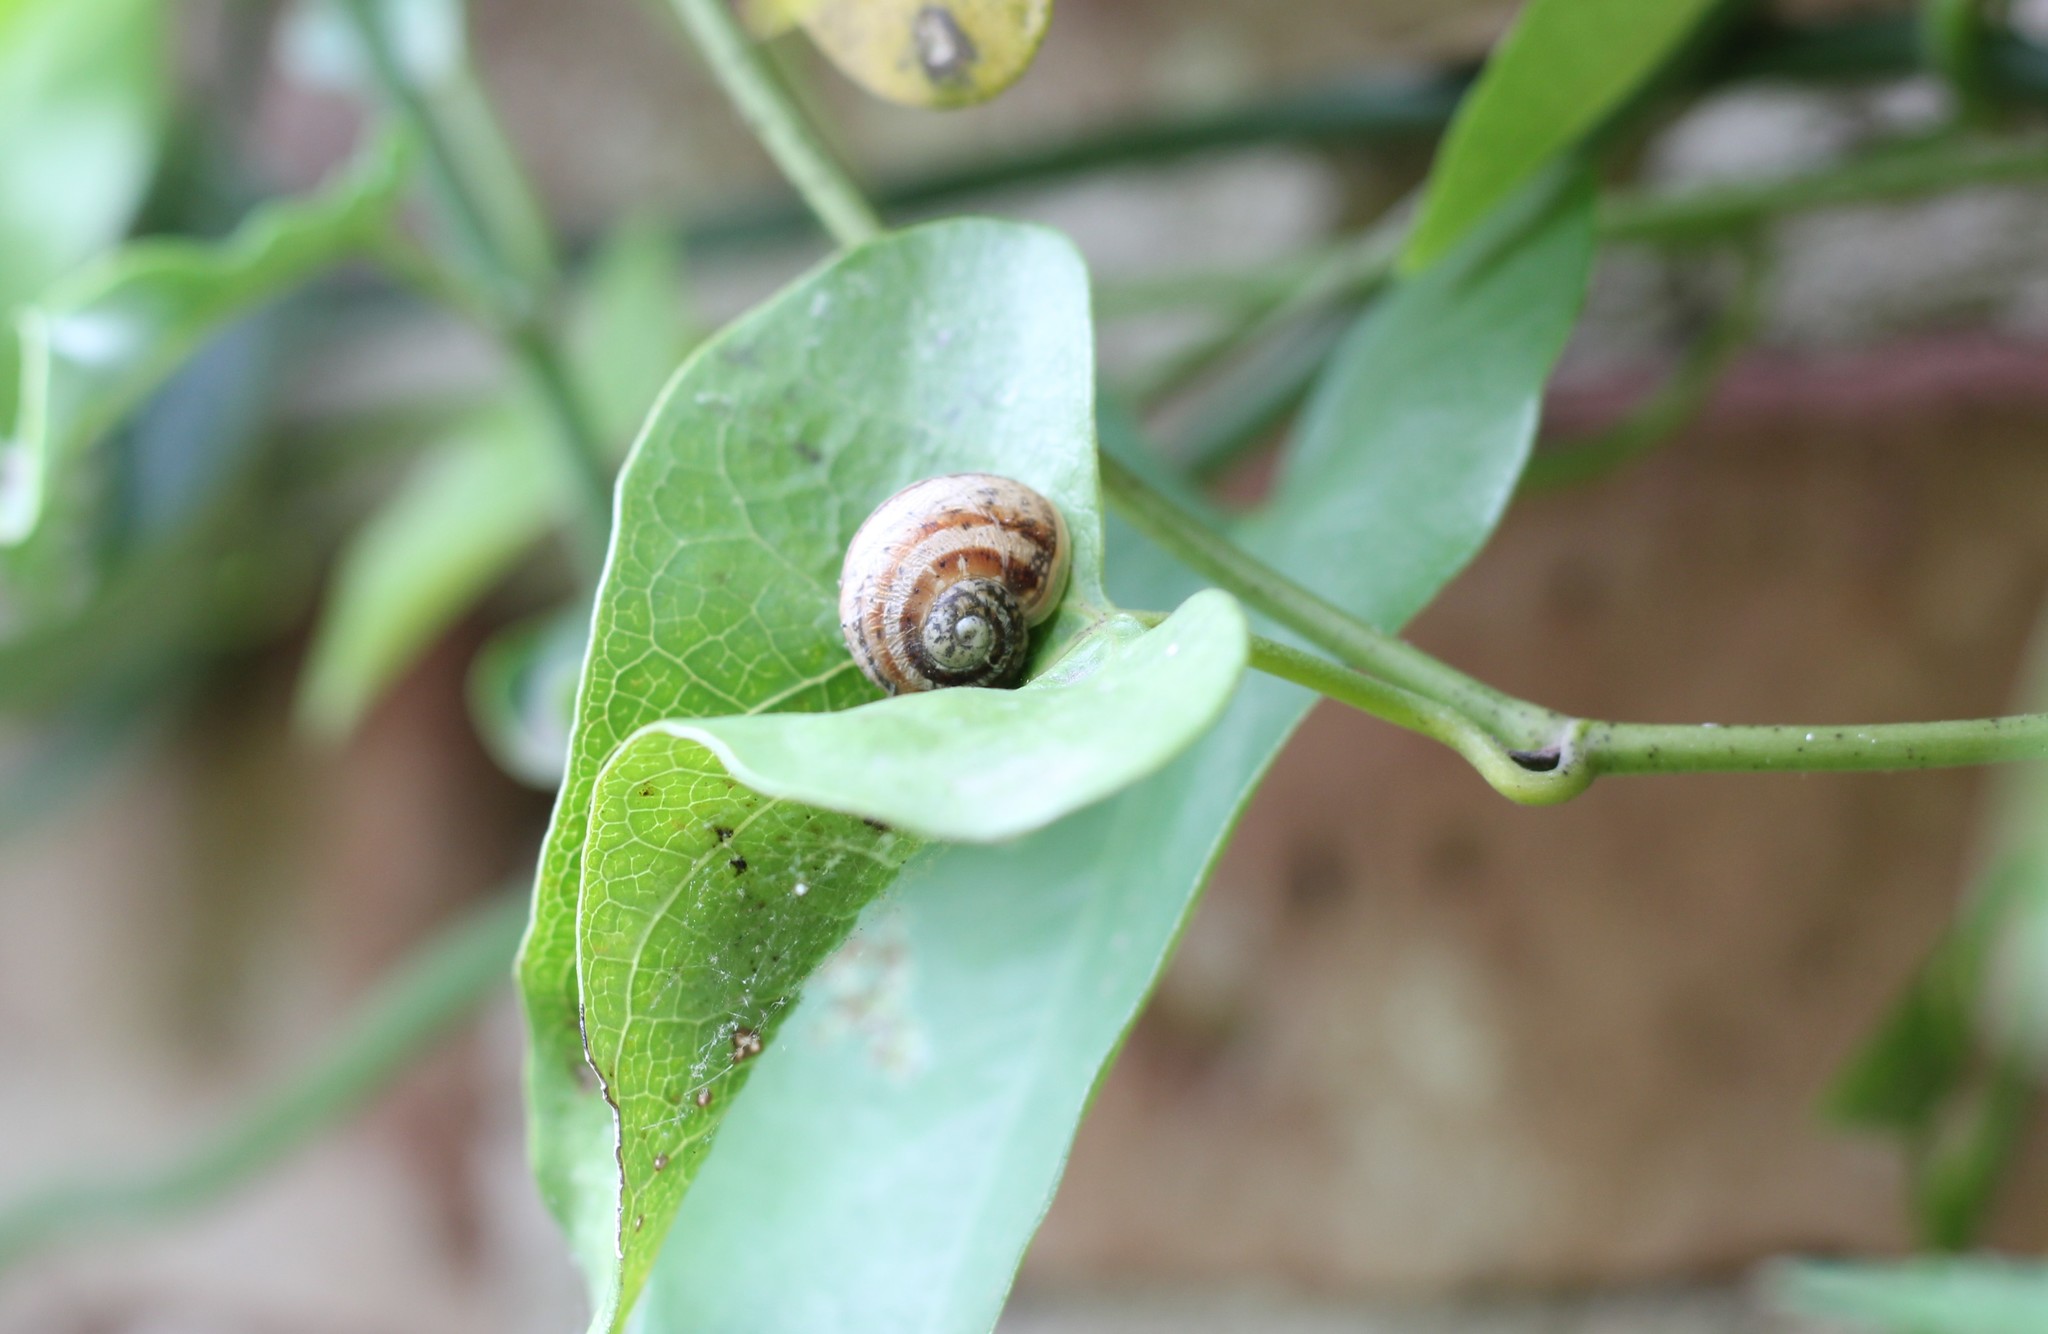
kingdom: Animalia
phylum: Mollusca
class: Gastropoda
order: Stylommatophora
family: Helicidae
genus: Cornu
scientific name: Cornu aspersum
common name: Brown garden snail
